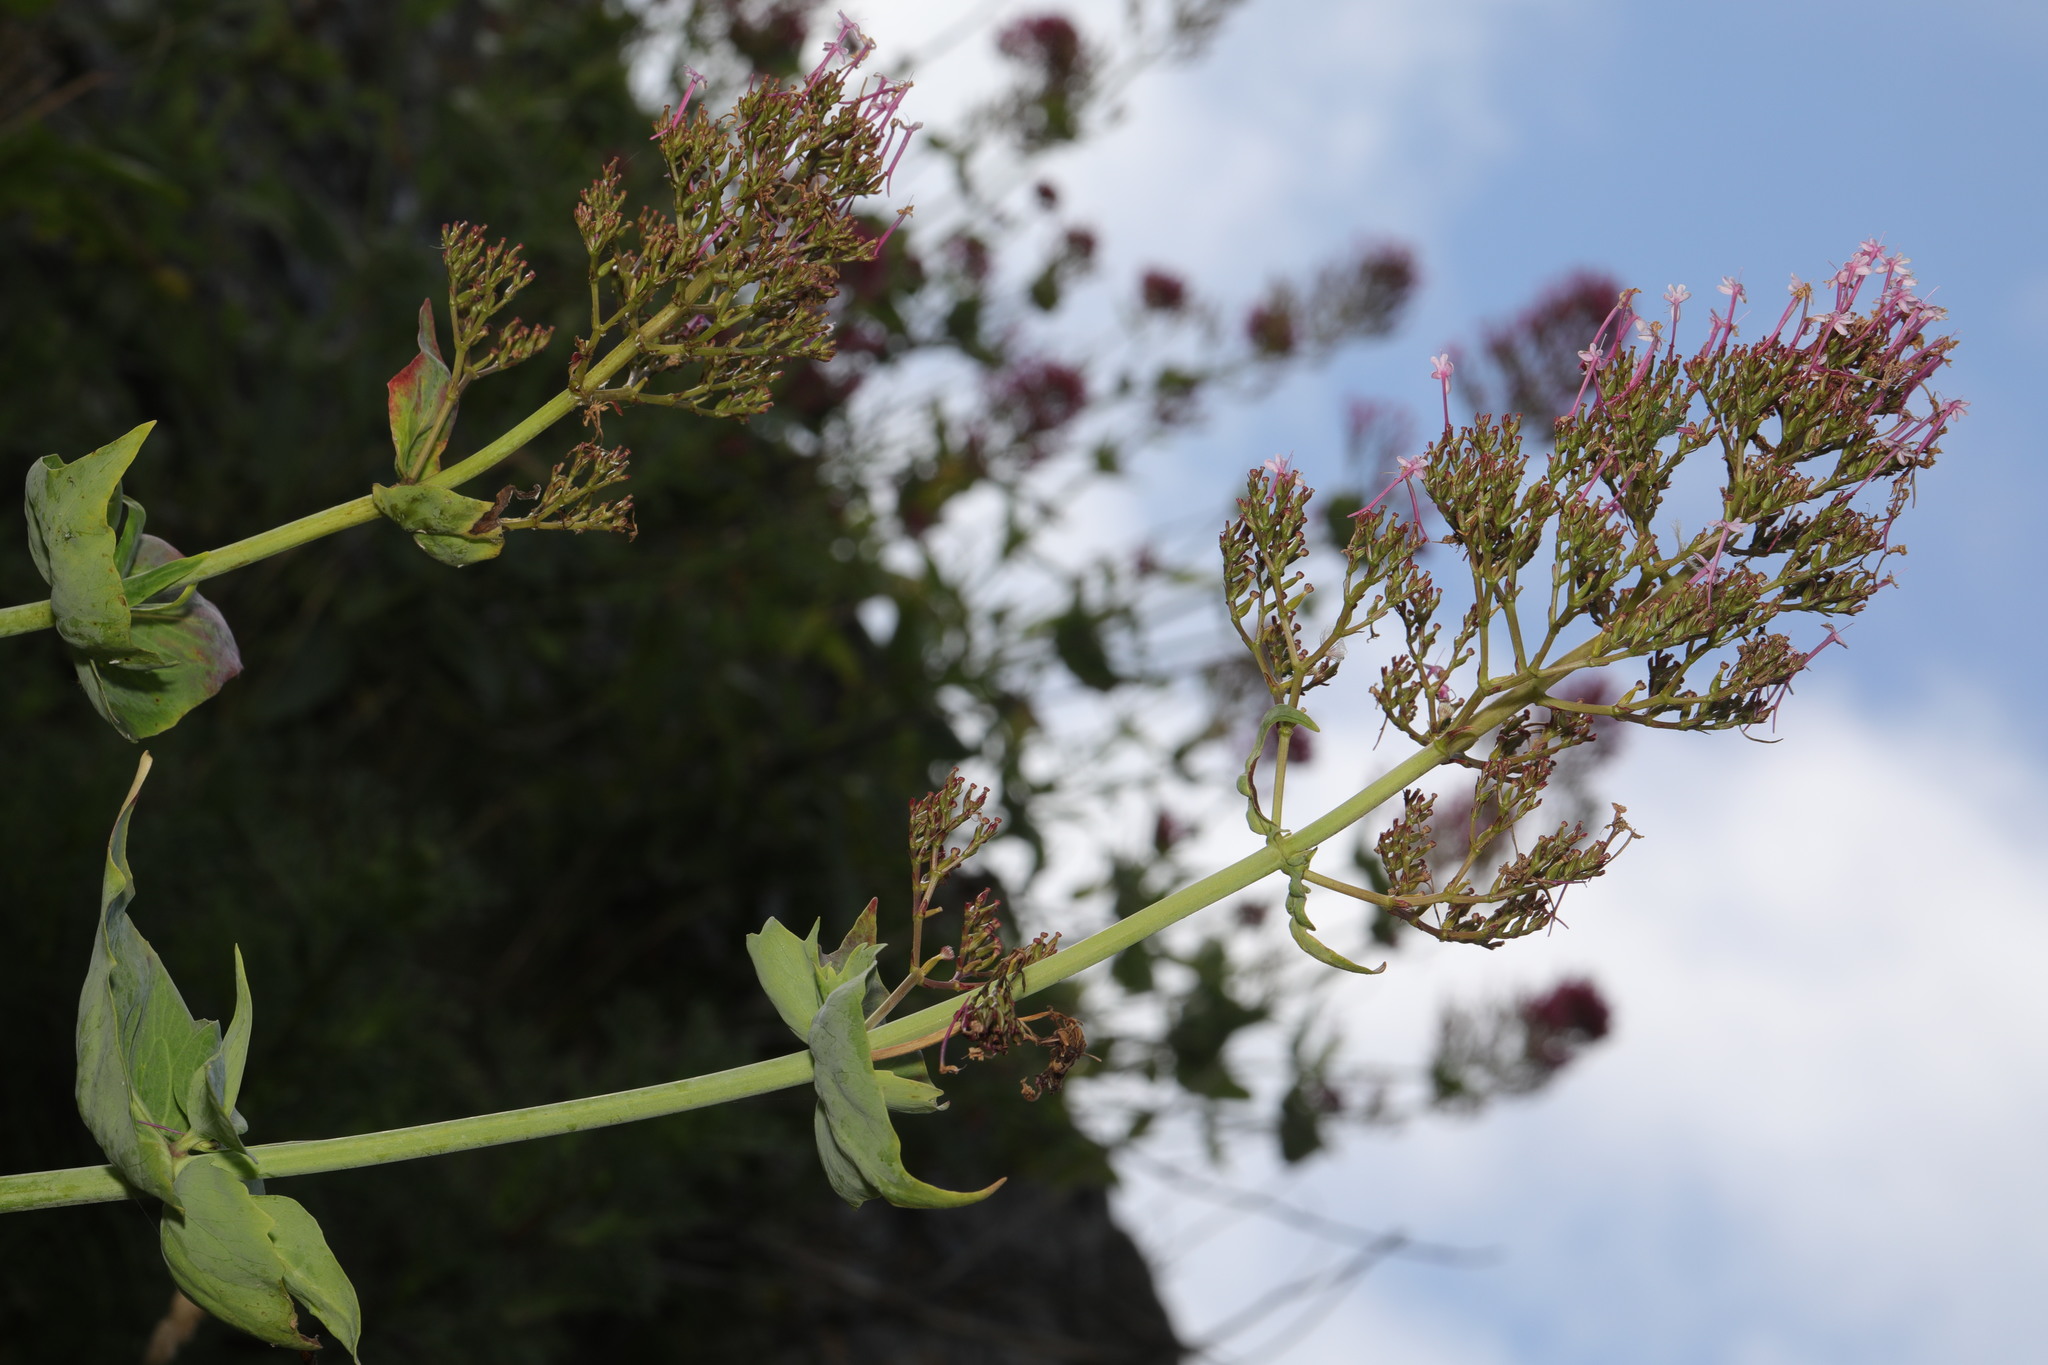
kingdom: Plantae
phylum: Tracheophyta
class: Magnoliopsida
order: Dipsacales
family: Caprifoliaceae
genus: Centranthus
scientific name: Centranthus ruber
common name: Red valerian
